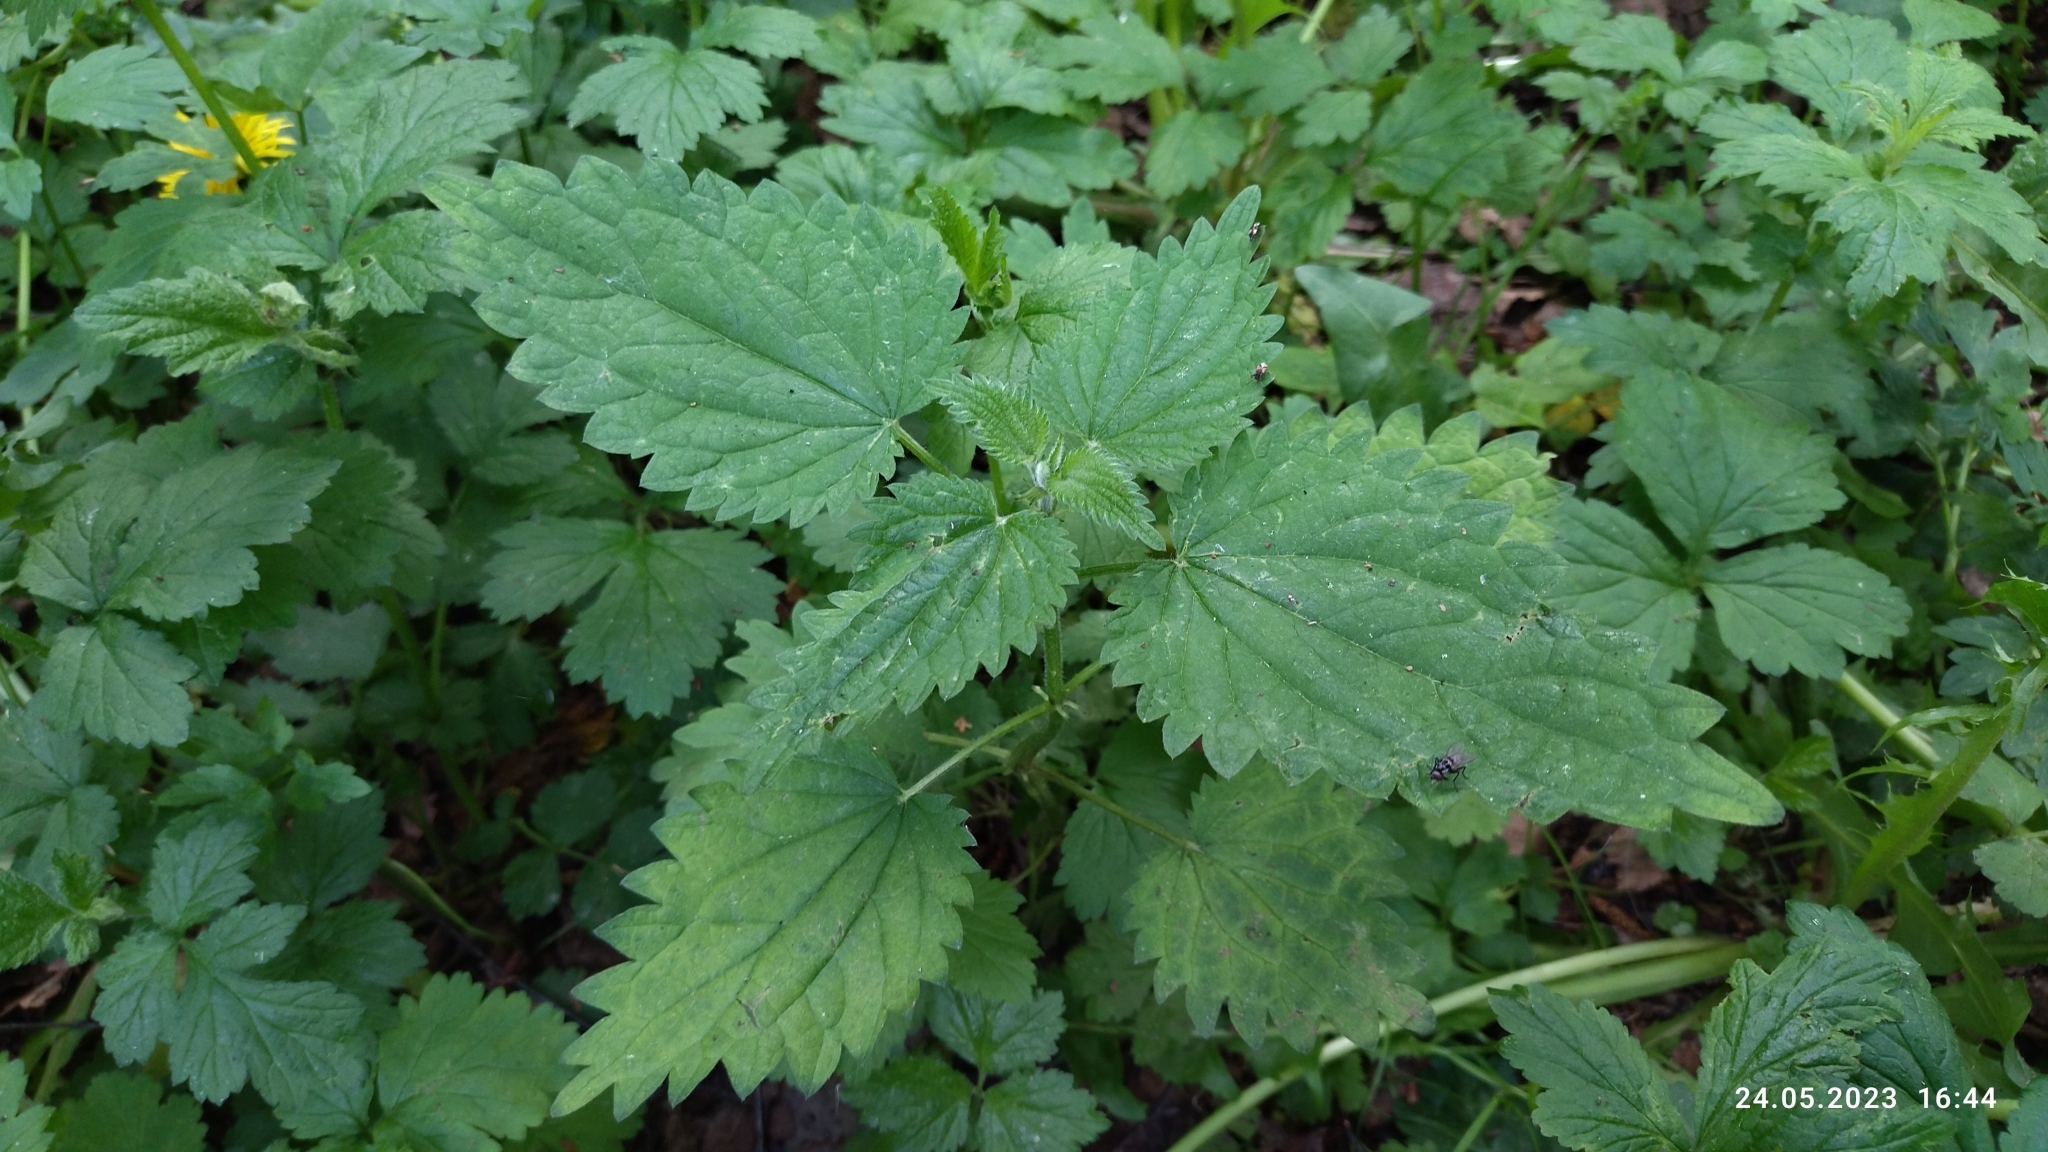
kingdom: Plantae
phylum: Tracheophyta
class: Magnoliopsida
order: Rosales
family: Urticaceae
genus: Urtica
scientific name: Urtica dioica
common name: Common nettle
